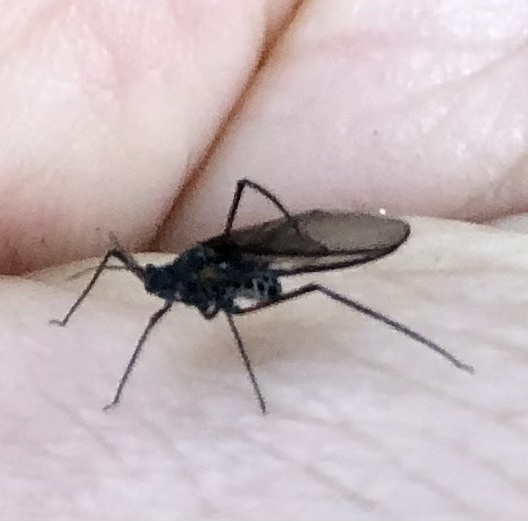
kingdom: Animalia
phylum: Arthropoda
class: Insecta
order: Hemiptera
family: Aphididae
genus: Longistigma
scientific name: Longistigma caryae
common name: Giant bark aphid
